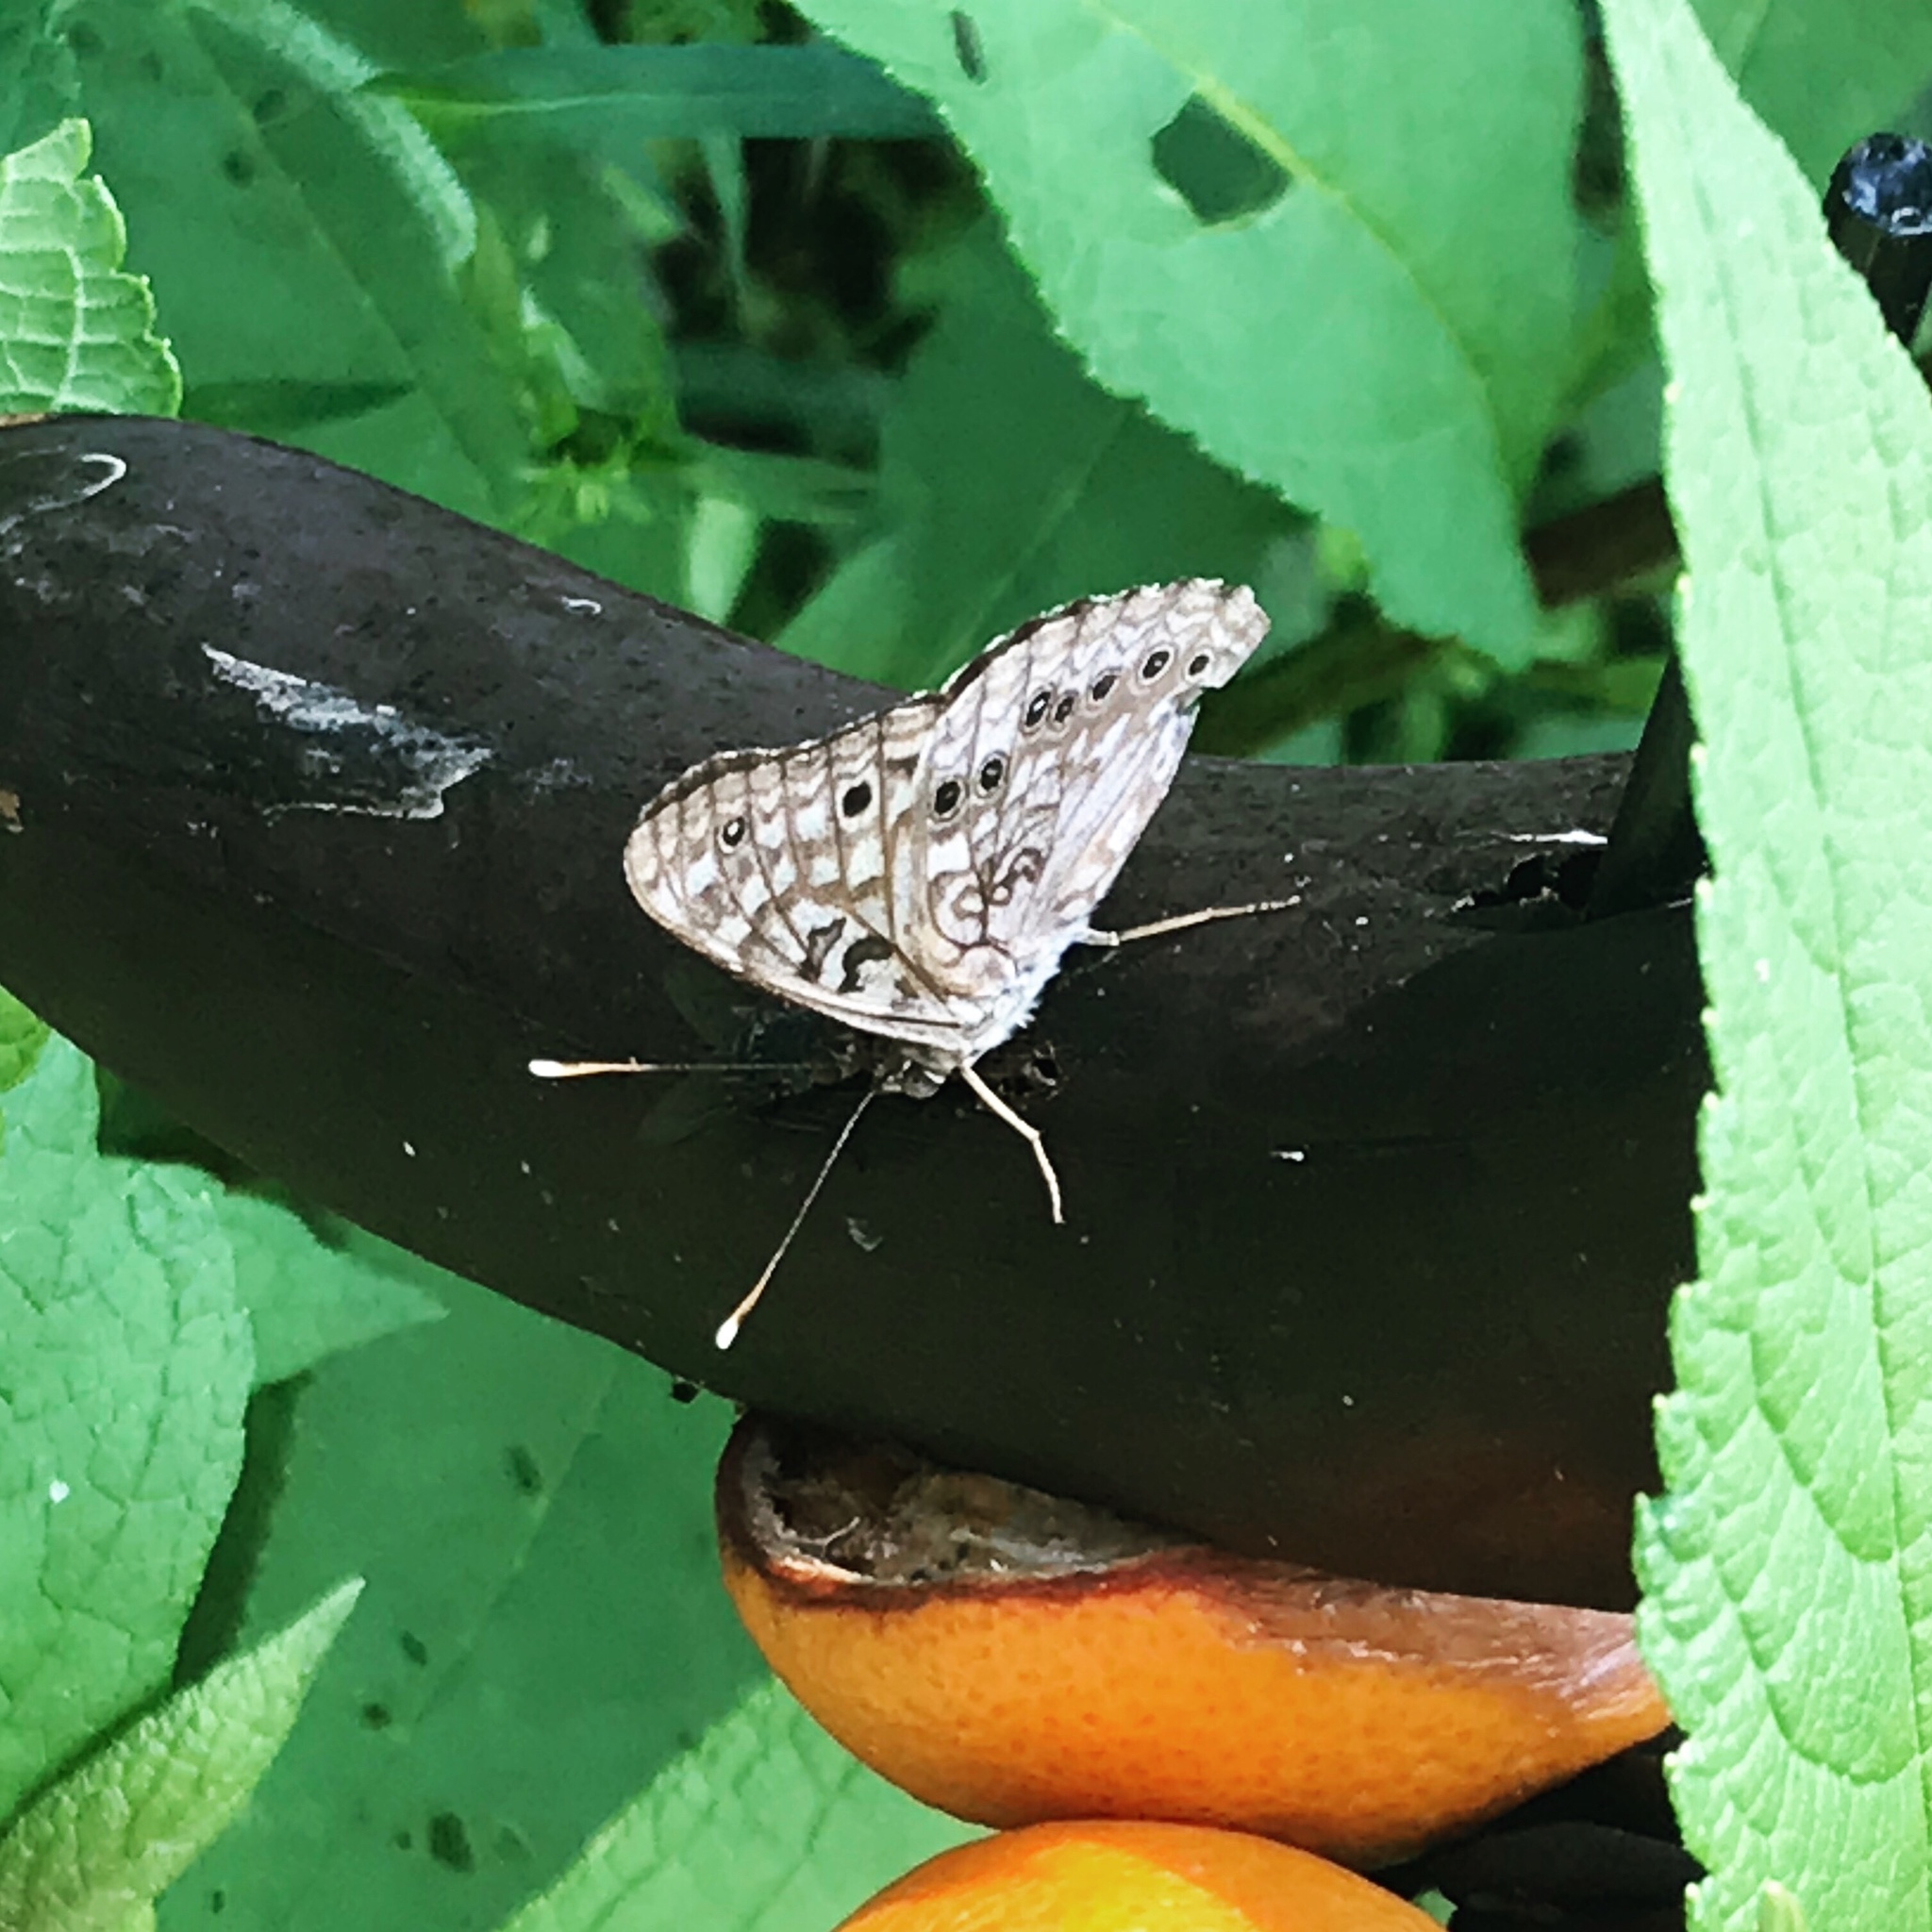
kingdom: Animalia
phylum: Arthropoda
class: Insecta
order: Lepidoptera
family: Nymphalidae
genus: Asterocampa
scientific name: Asterocampa celtis
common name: Hackberry emperor
